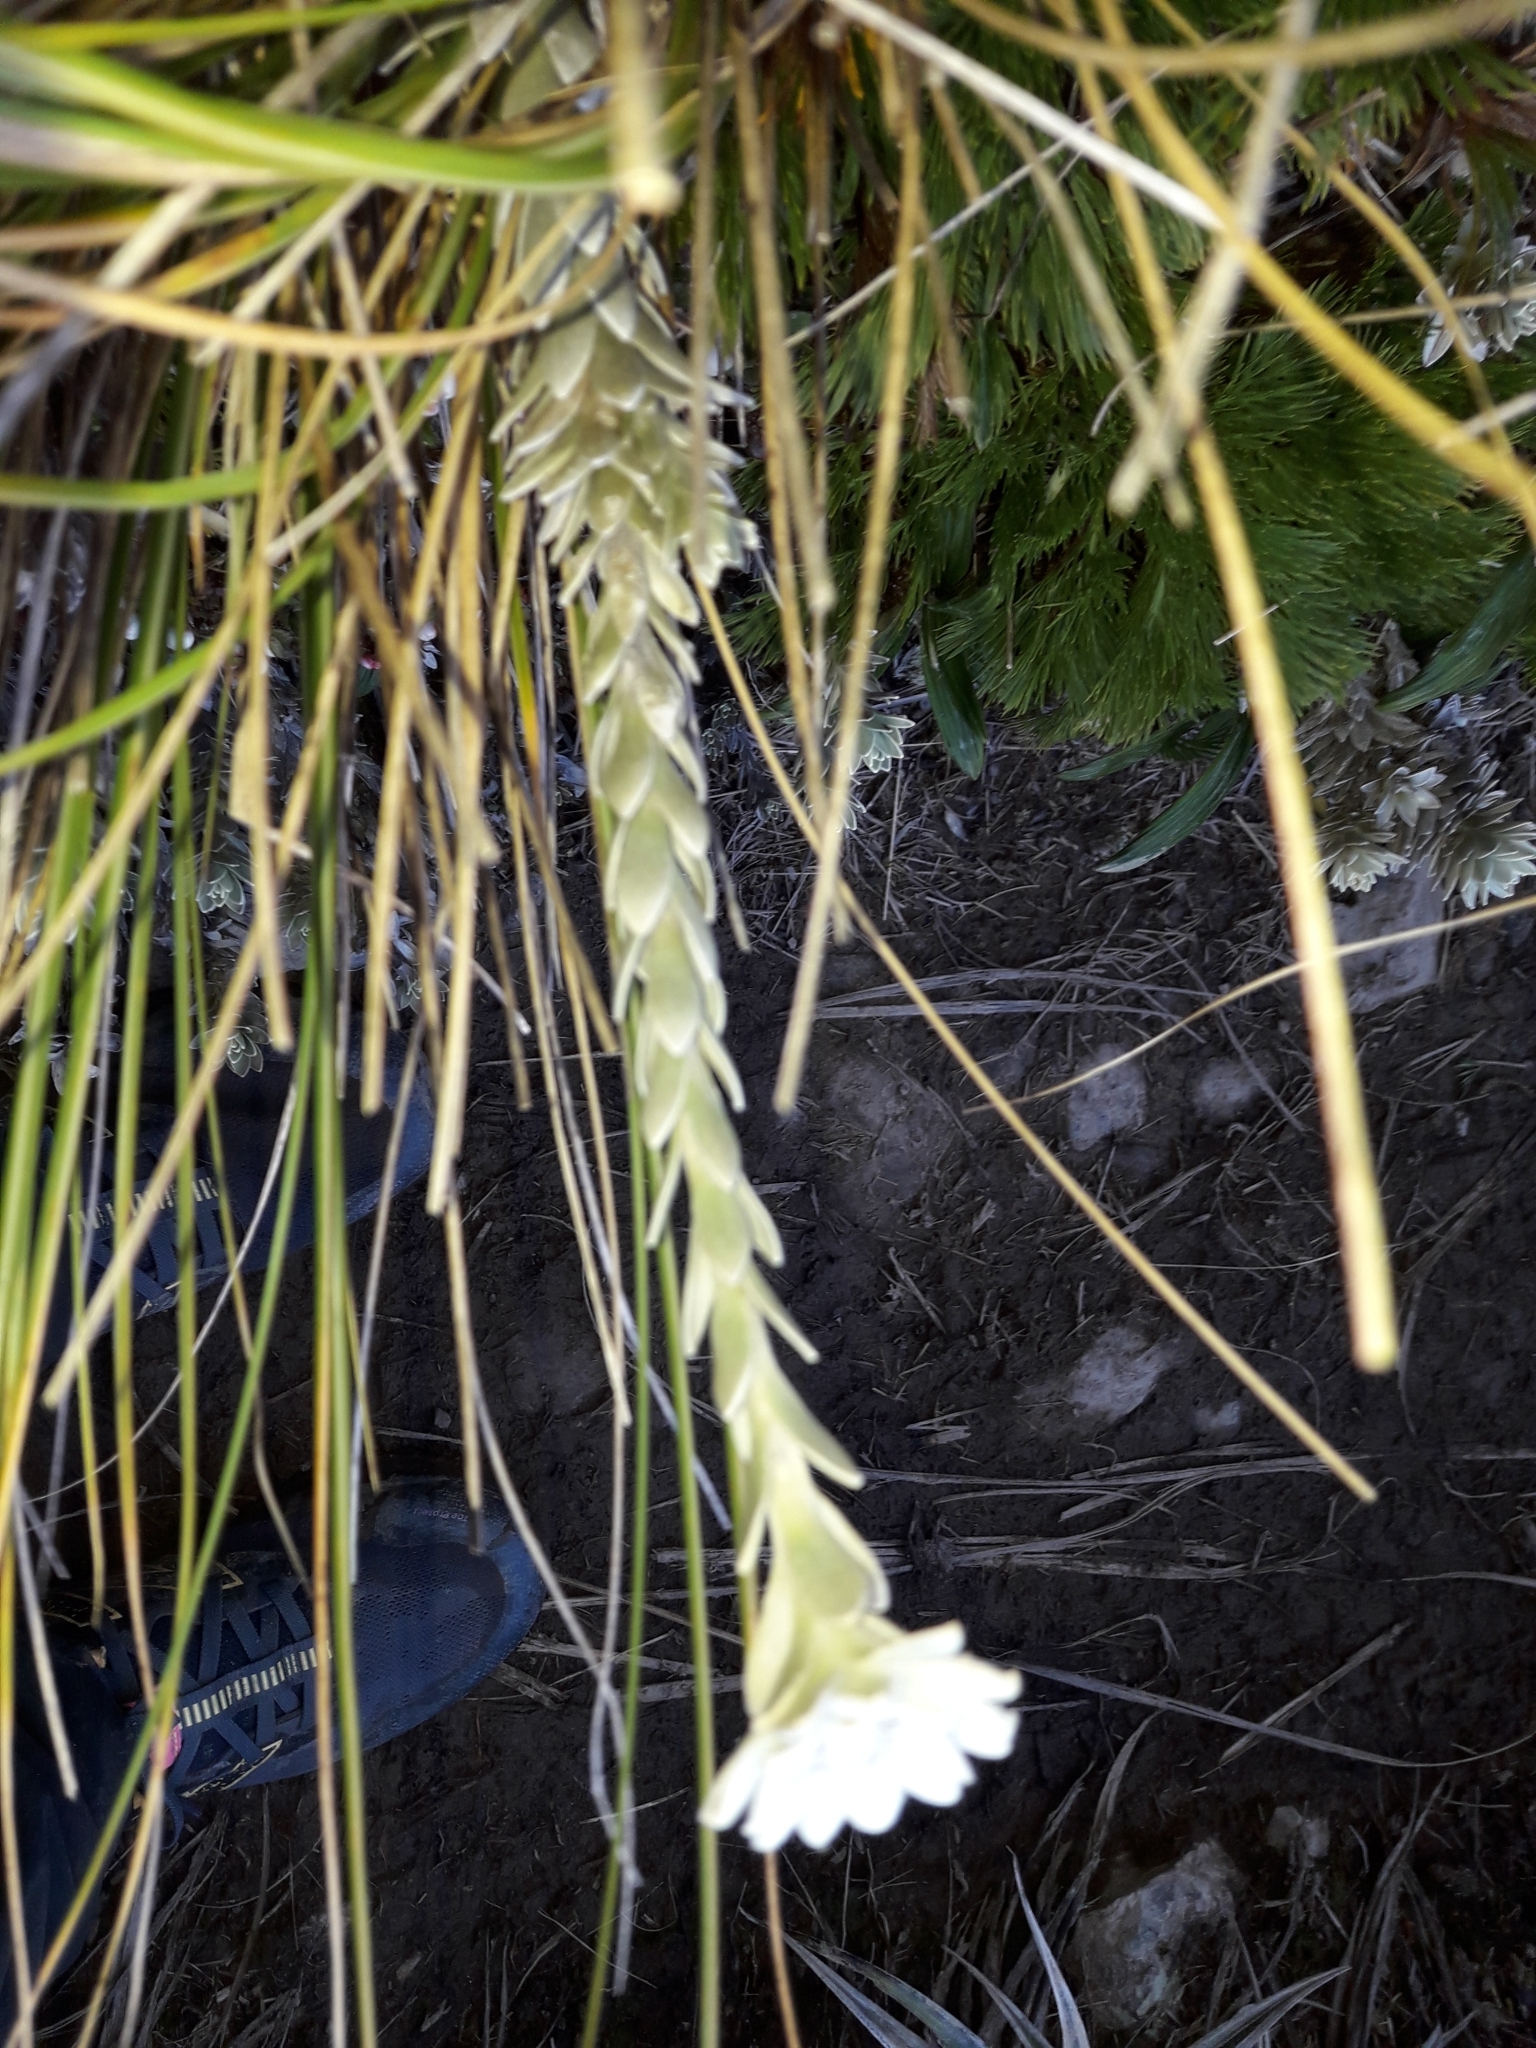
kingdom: Plantae
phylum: Tracheophyta
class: Magnoliopsida
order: Asterales
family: Asteraceae
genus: Leucogenes
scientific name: Leucogenes leontopodium
